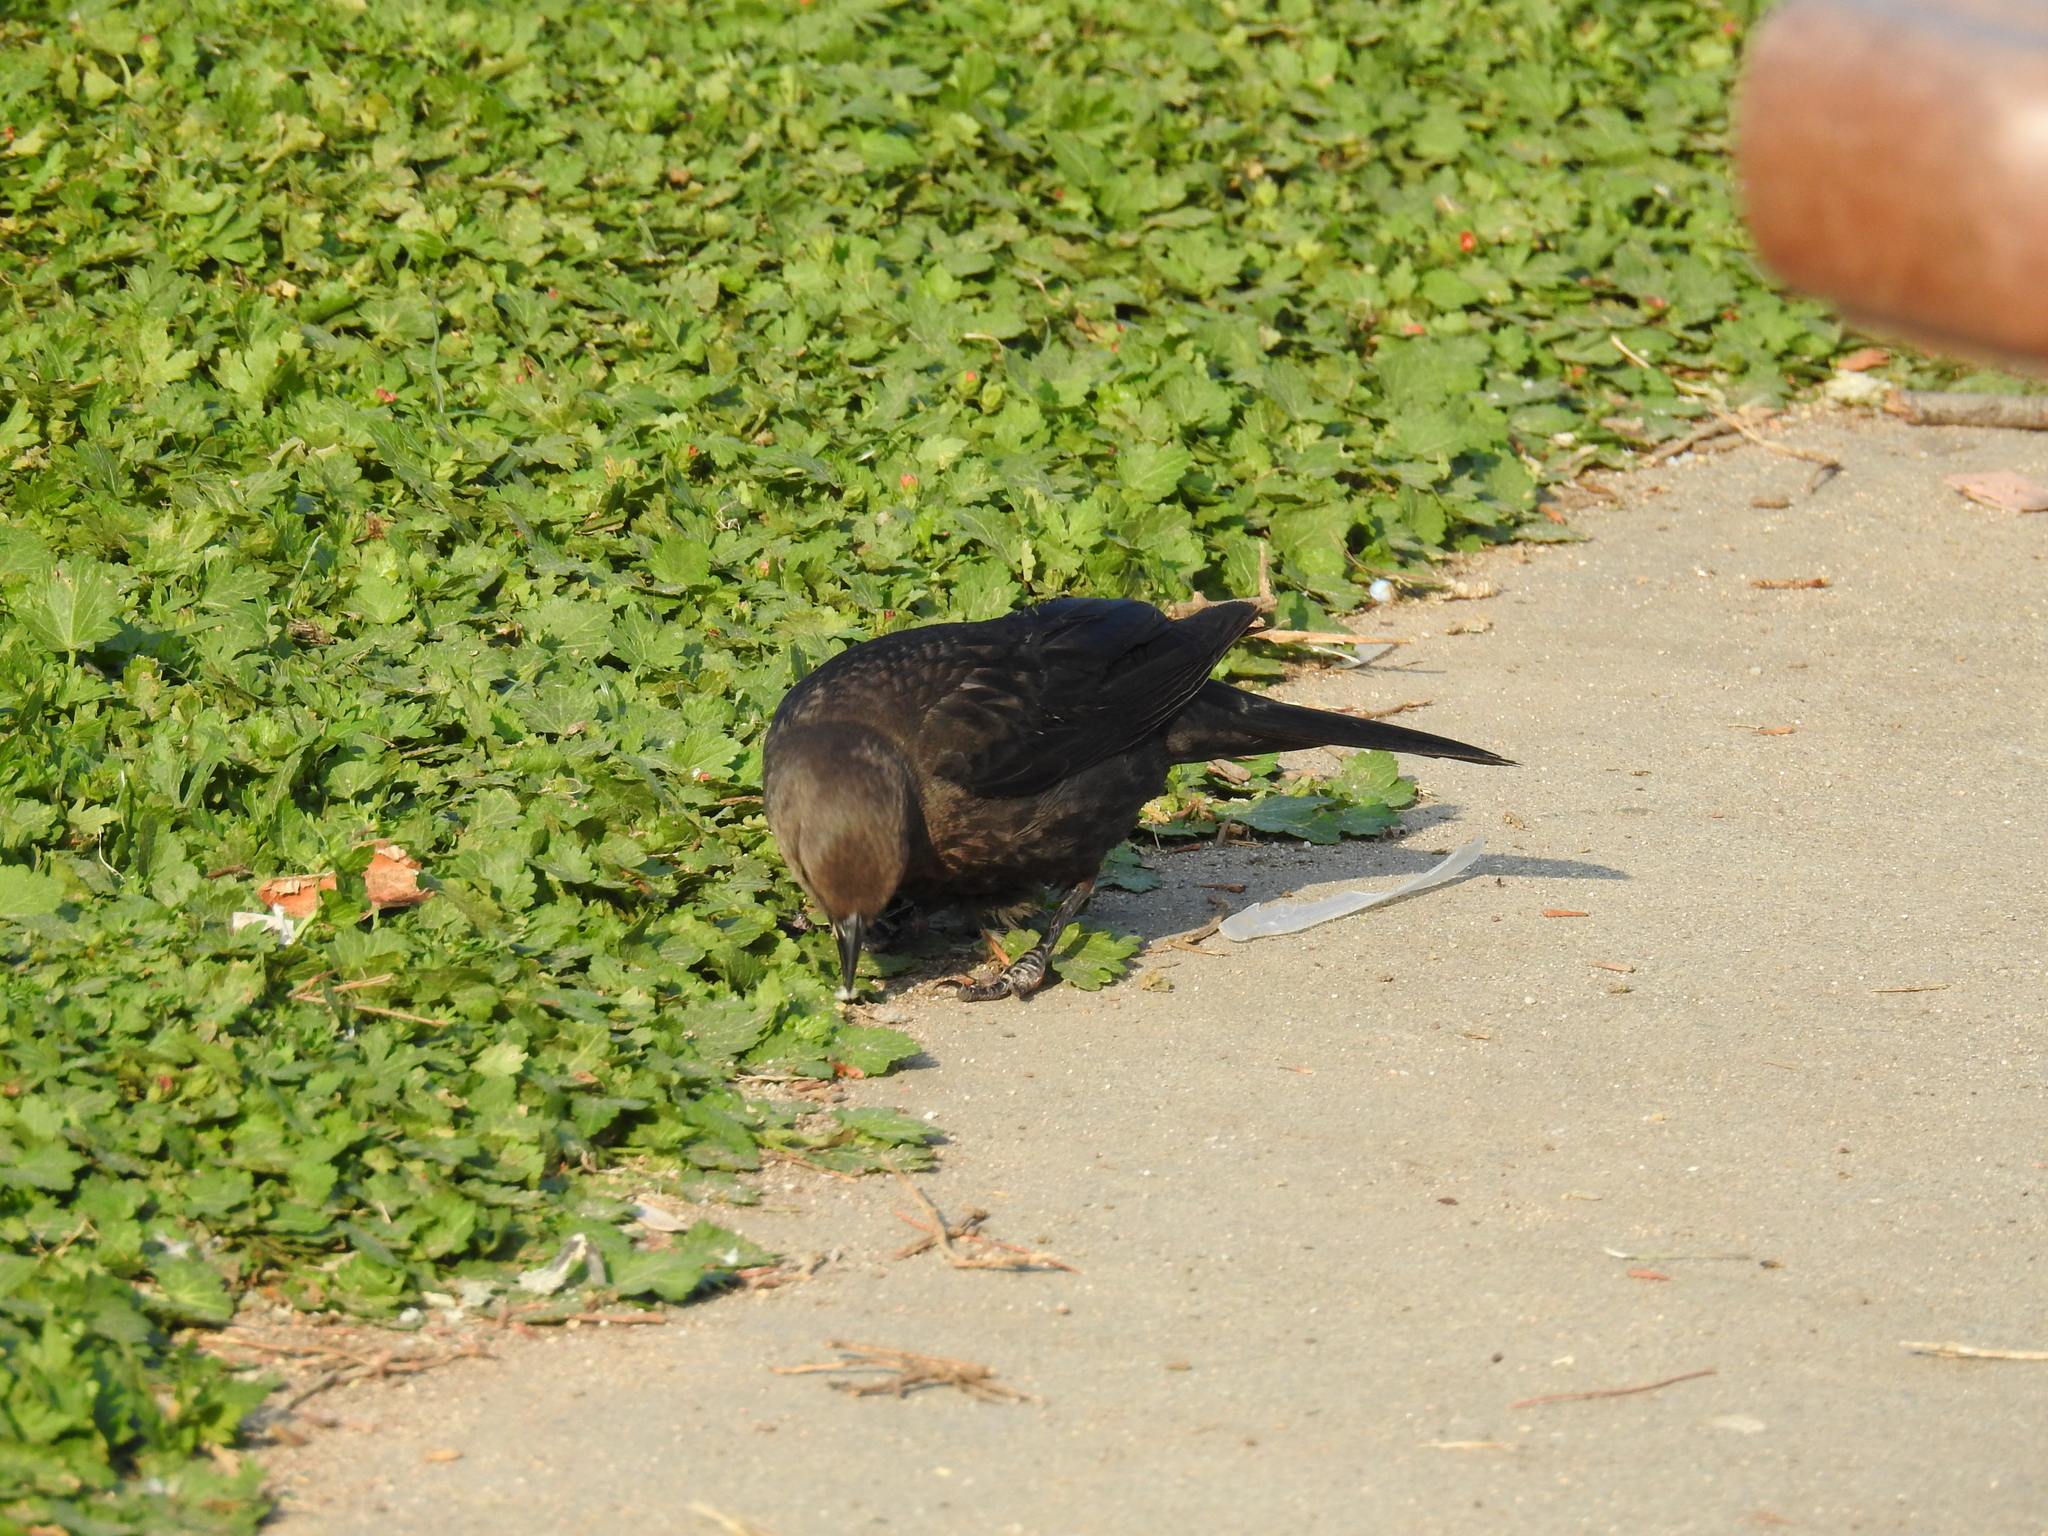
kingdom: Animalia
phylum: Chordata
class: Aves
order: Passeriformes
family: Icteridae
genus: Euphagus
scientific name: Euphagus cyanocephalus
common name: Brewer's blackbird
